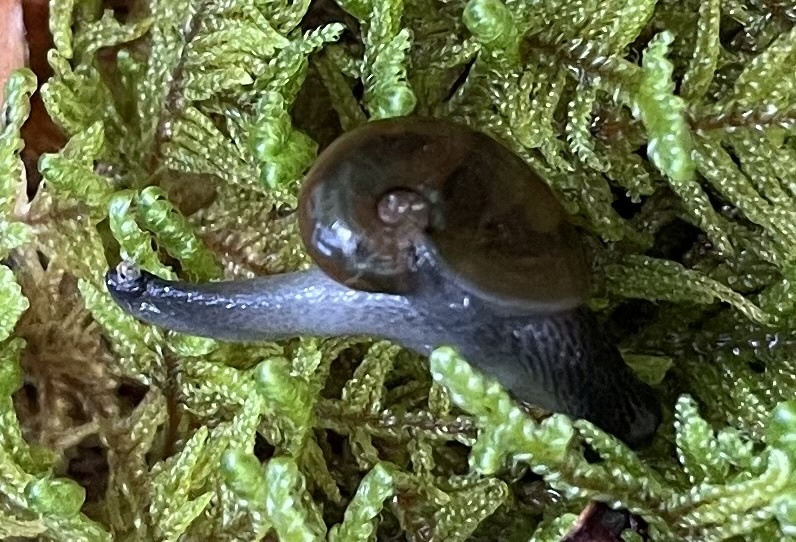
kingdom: Animalia
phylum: Mollusca
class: Gastropoda
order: Stylommatophora
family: Gastrodontidae
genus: Vitrinizonites
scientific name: Vitrinizonites latissimus
